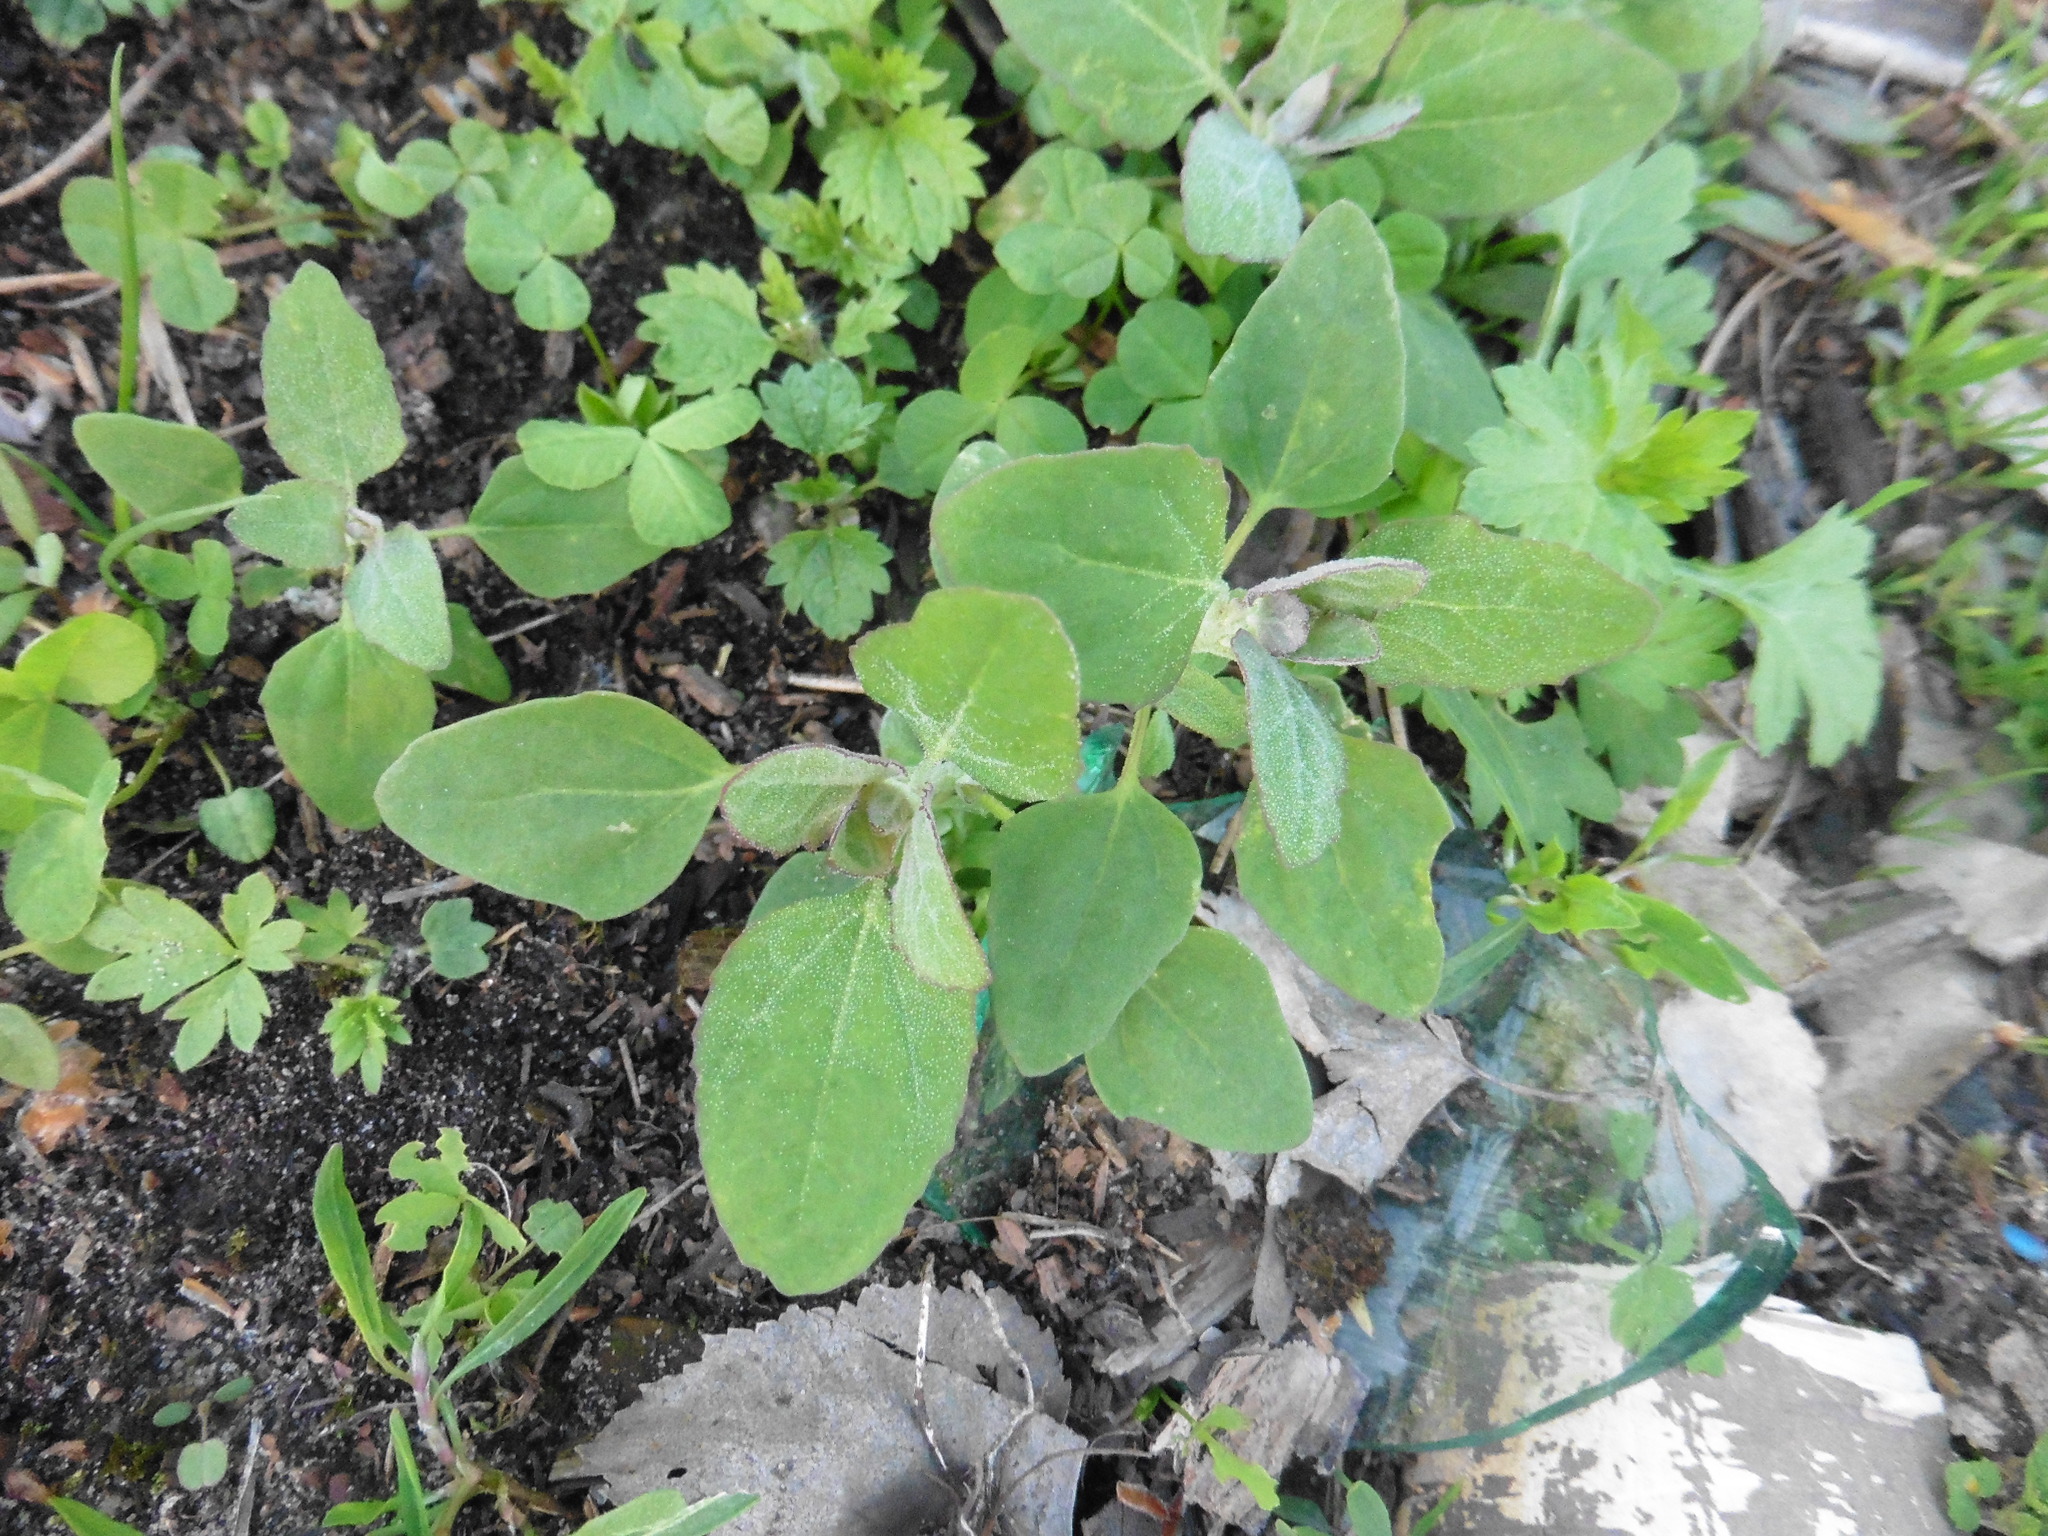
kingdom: Plantae
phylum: Tracheophyta
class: Magnoliopsida
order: Caryophyllales
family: Amaranthaceae
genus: Chenopodium
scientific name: Chenopodium album
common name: Fat-hen
